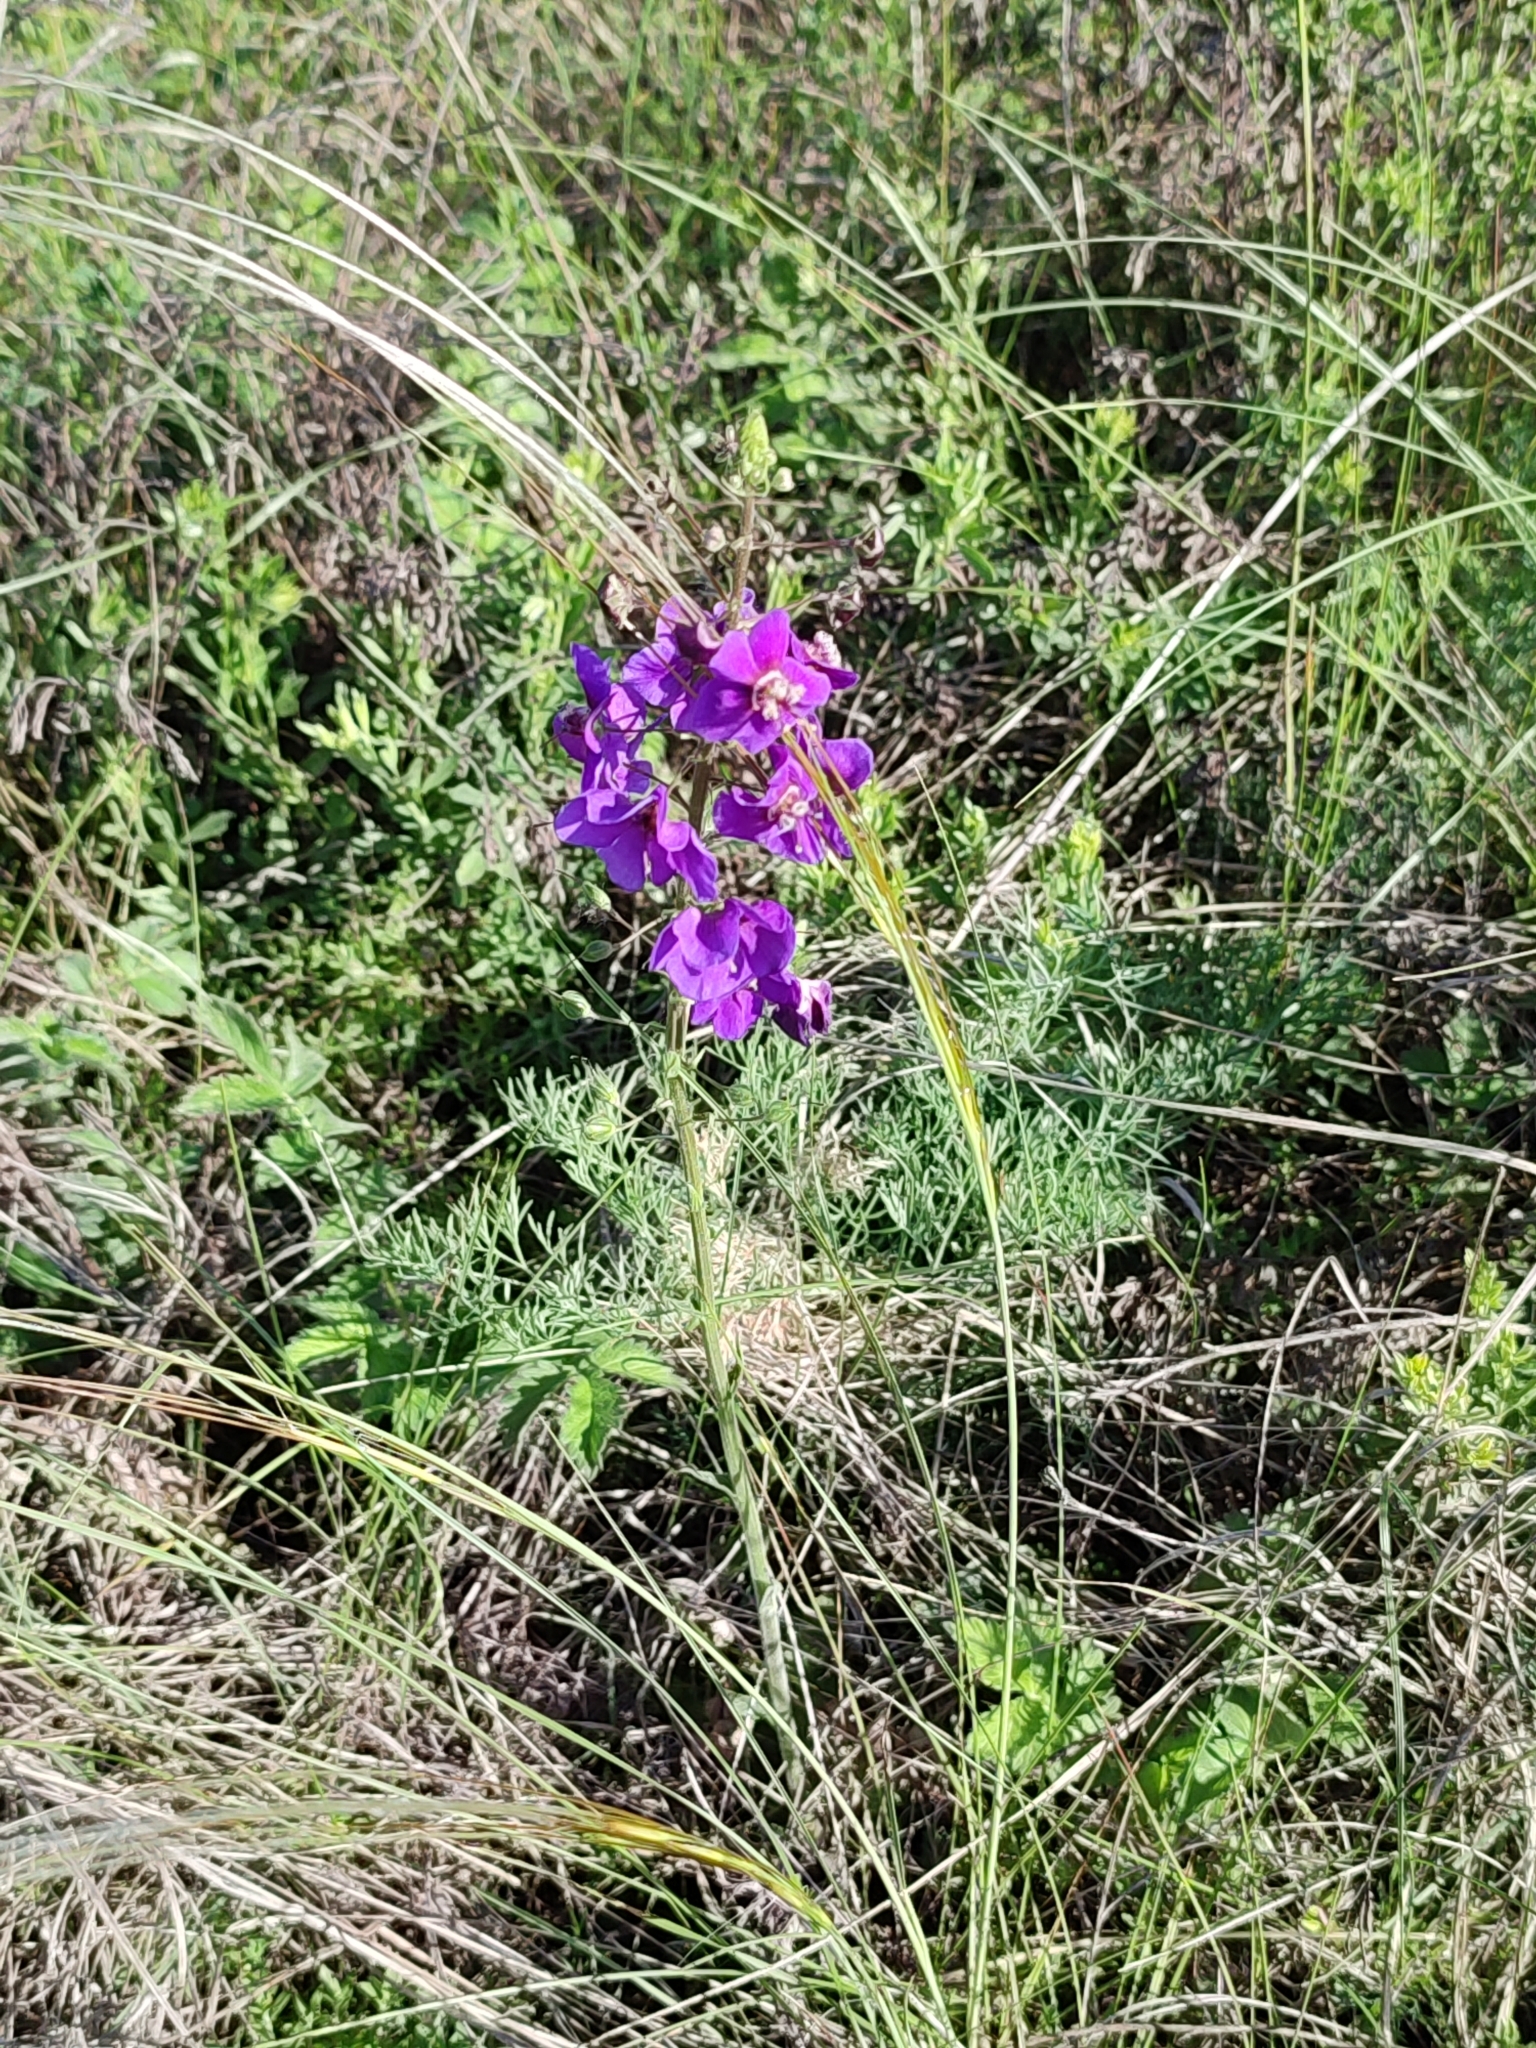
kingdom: Plantae
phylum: Tracheophyta
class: Magnoliopsida
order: Lamiales
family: Scrophulariaceae
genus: Verbascum
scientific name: Verbascum phoeniceum
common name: Purple mullein
